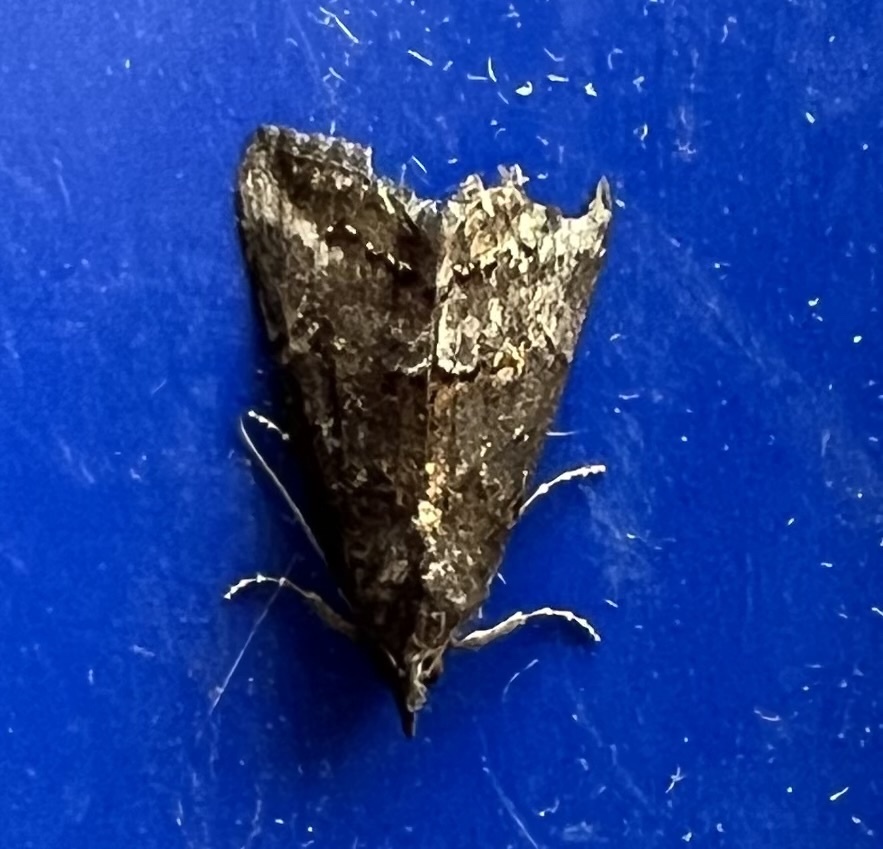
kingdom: Animalia
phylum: Arthropoda
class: Insecta
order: Lepidoptera
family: Erebidae
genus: Hypena
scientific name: Hypena scabra
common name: Green cloverworm
